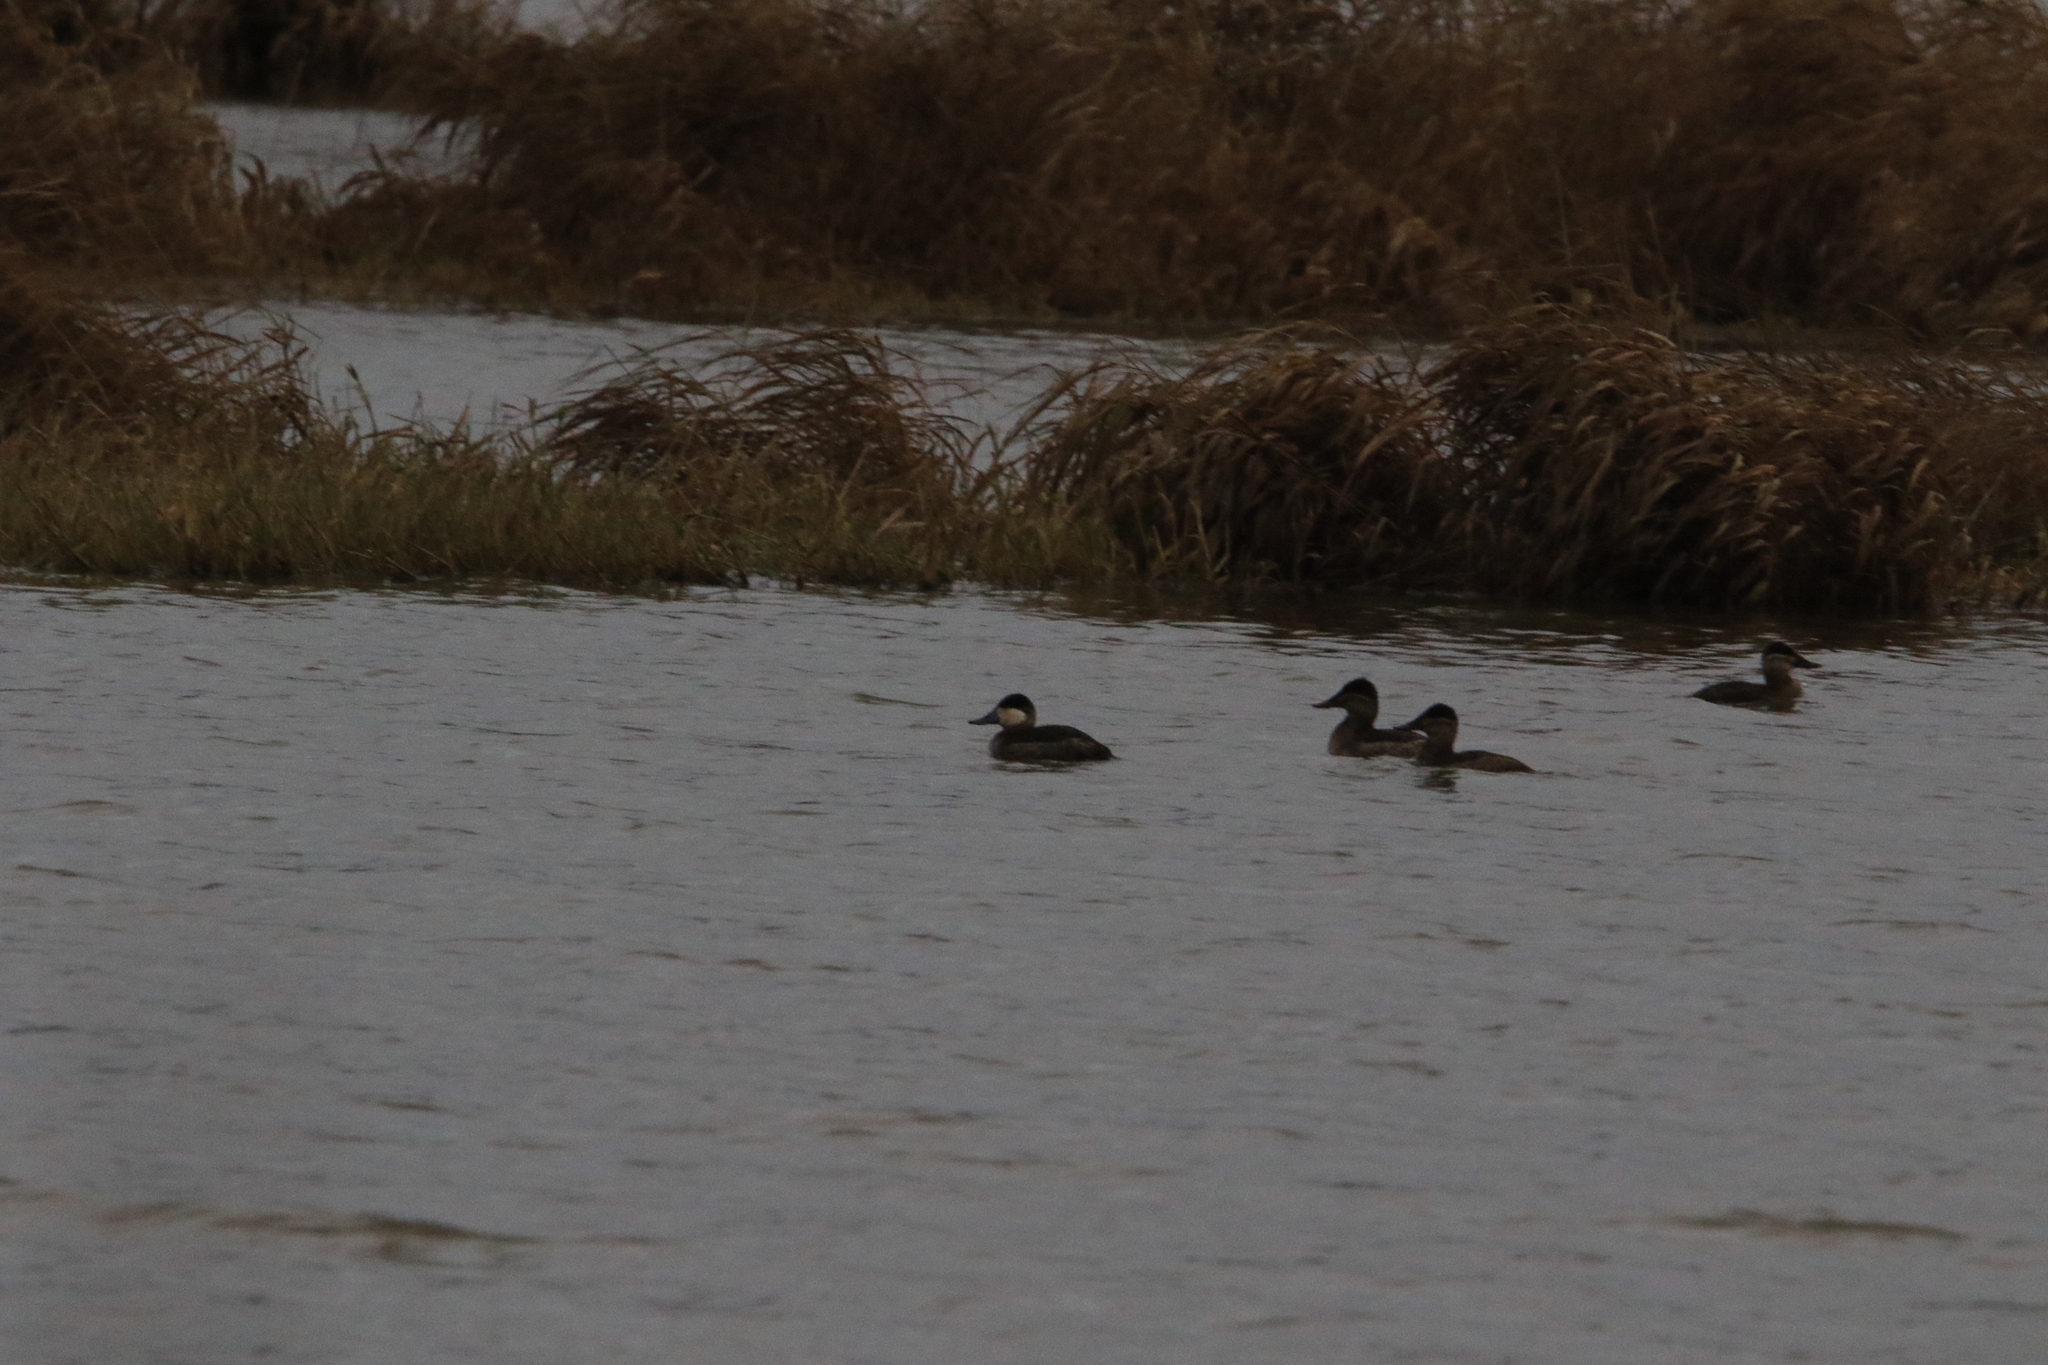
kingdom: Animalia
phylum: Chordata
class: Aves
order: Anseriformes
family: Anatidae
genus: Oxyura
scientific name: Oxyura jamaicensis
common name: Ruddy duck
